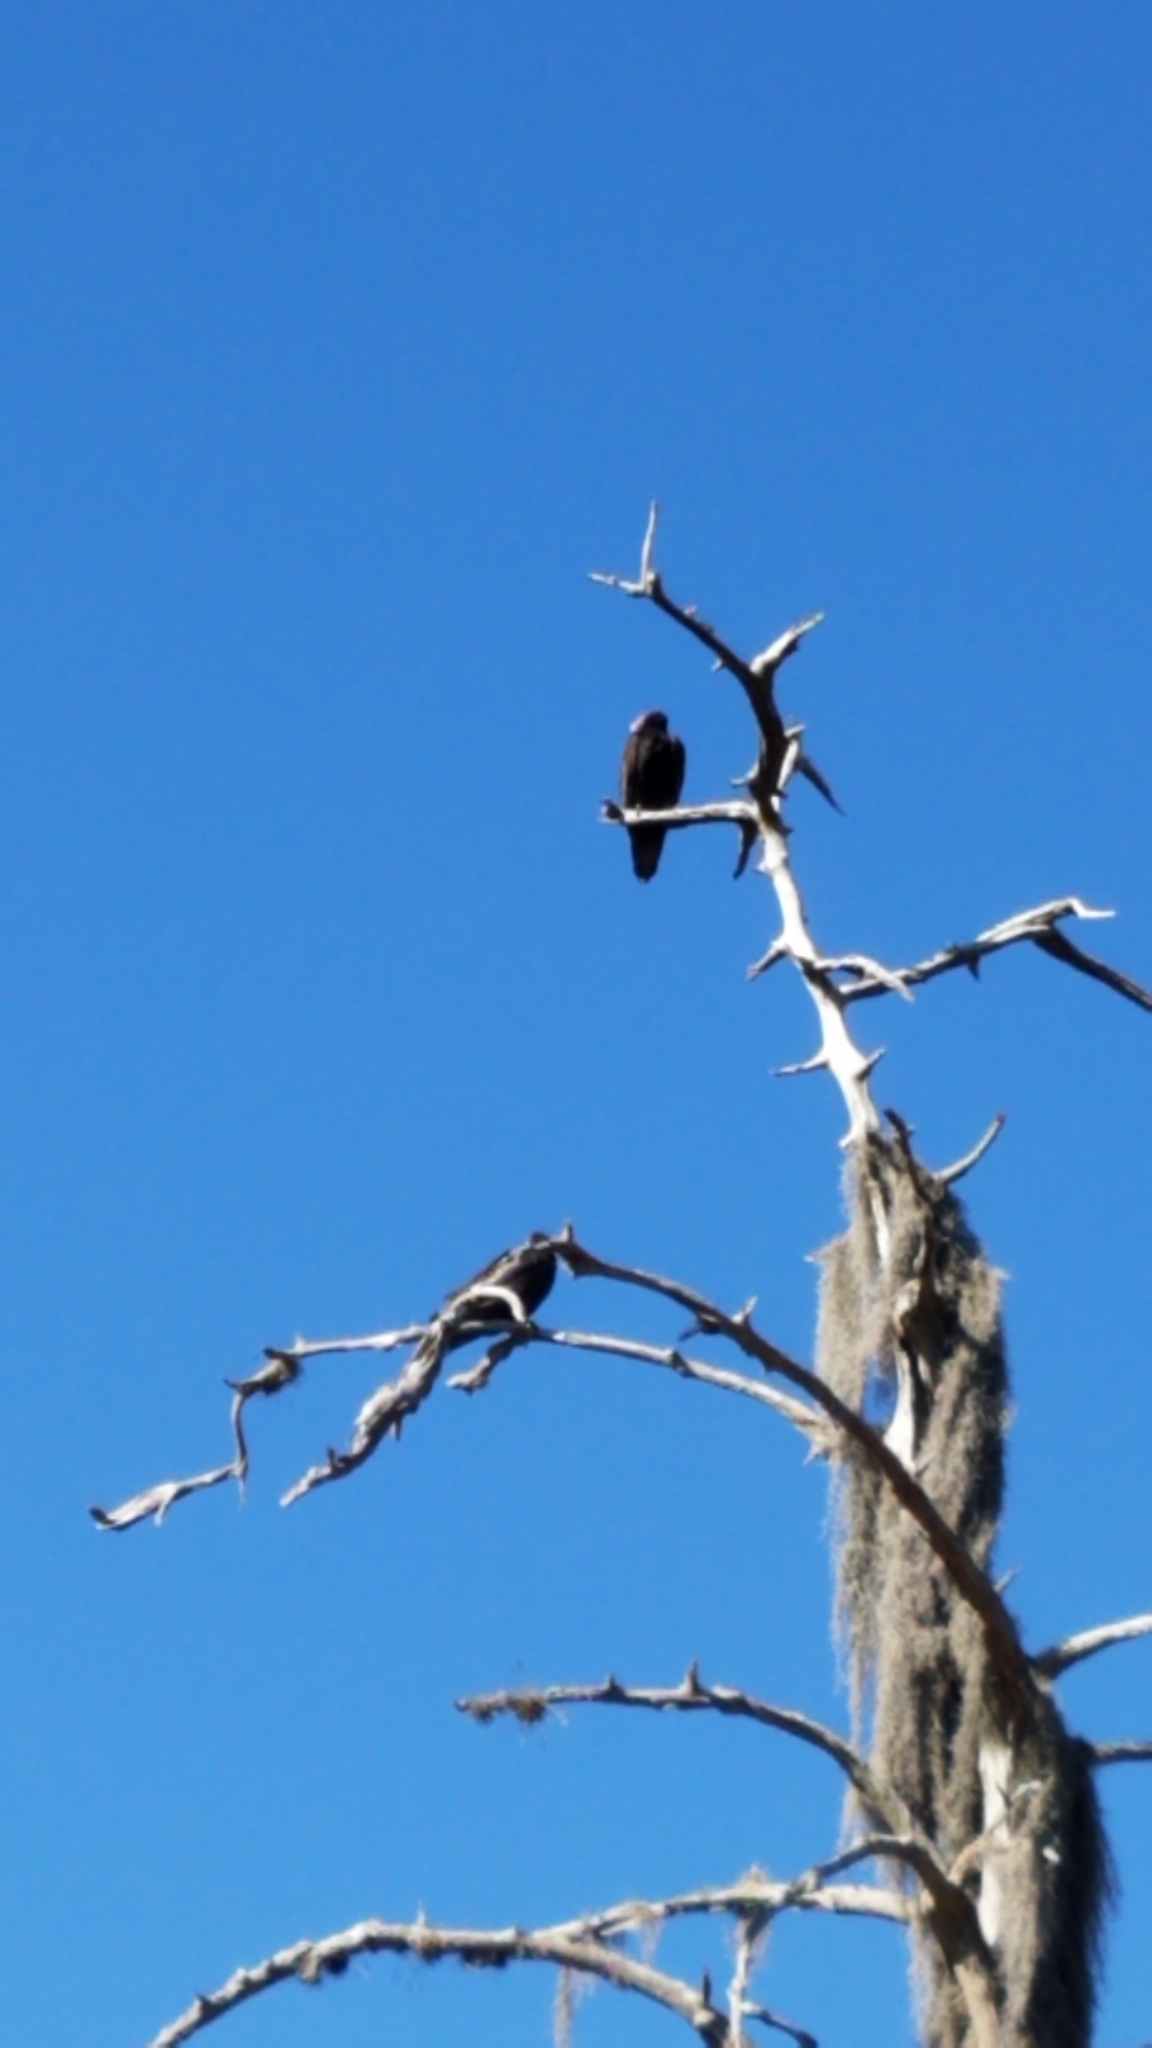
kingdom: Animalia
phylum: Chordata
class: Aves
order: Accipitriformes
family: Cathartidae
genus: Cathartes
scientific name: Cathartes aura
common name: Turkey vulture
